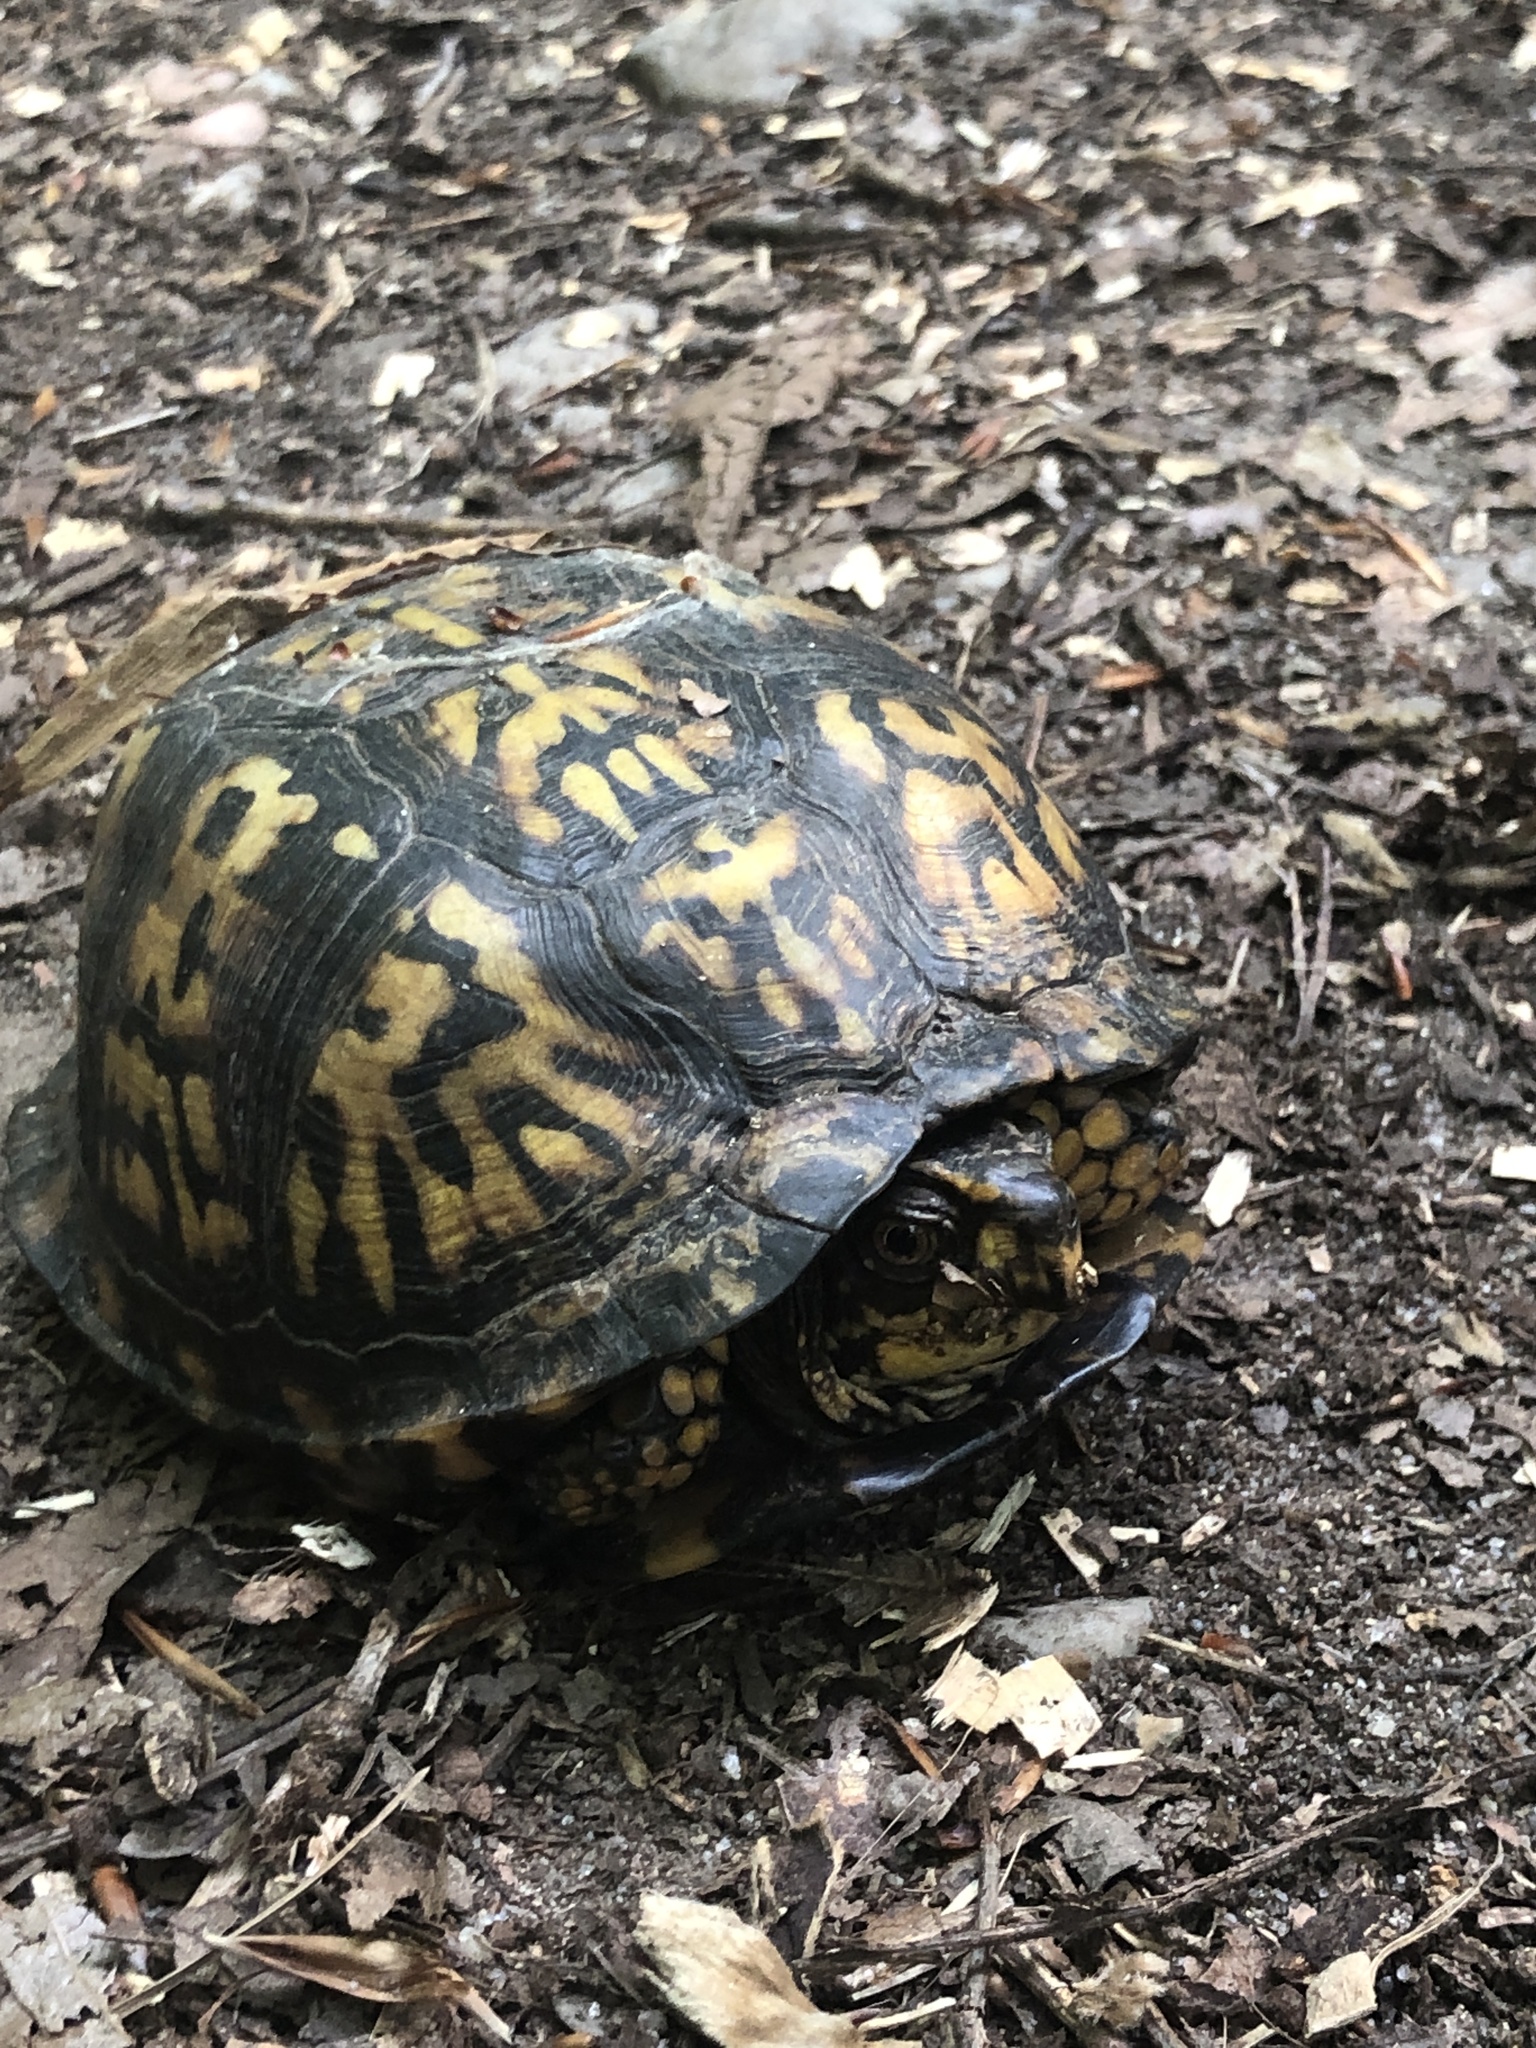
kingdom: Animalia
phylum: Chordata
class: Testudines
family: Emydidae
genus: Terrapene
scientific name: Terrapene carolina
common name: Common box turtle
